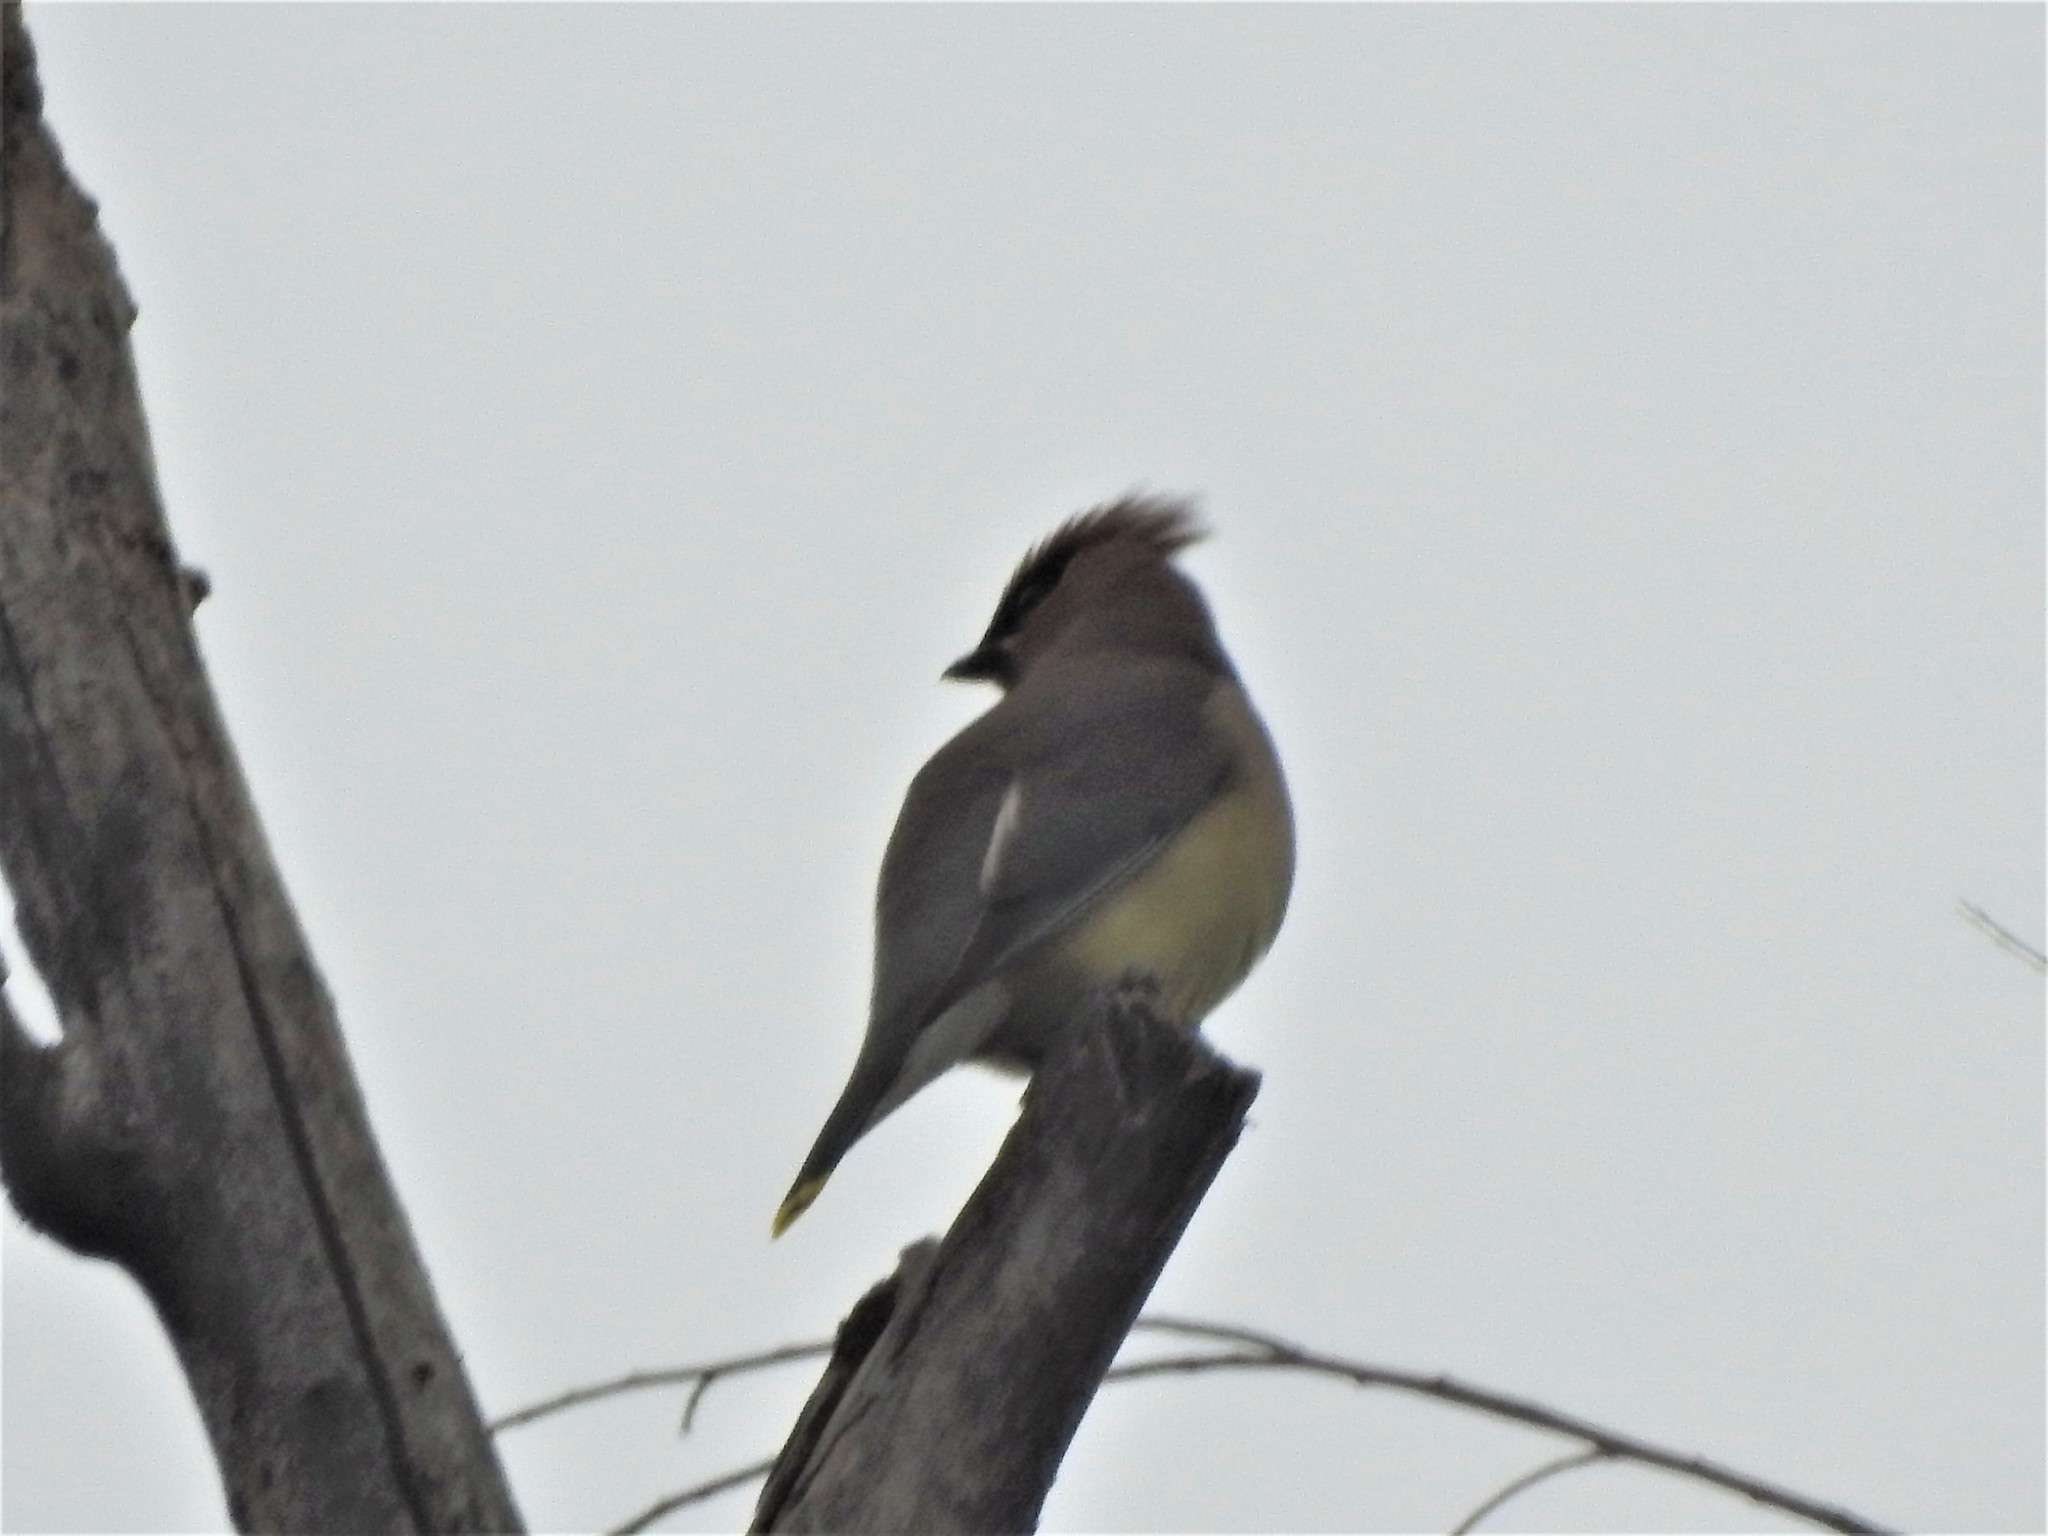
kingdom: Animalia
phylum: Chordata
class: Aves
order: Passeriformes
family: Bombycillidae
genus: Bombycilla
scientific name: Bombycilla cedrorum
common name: Cedar waxwing
